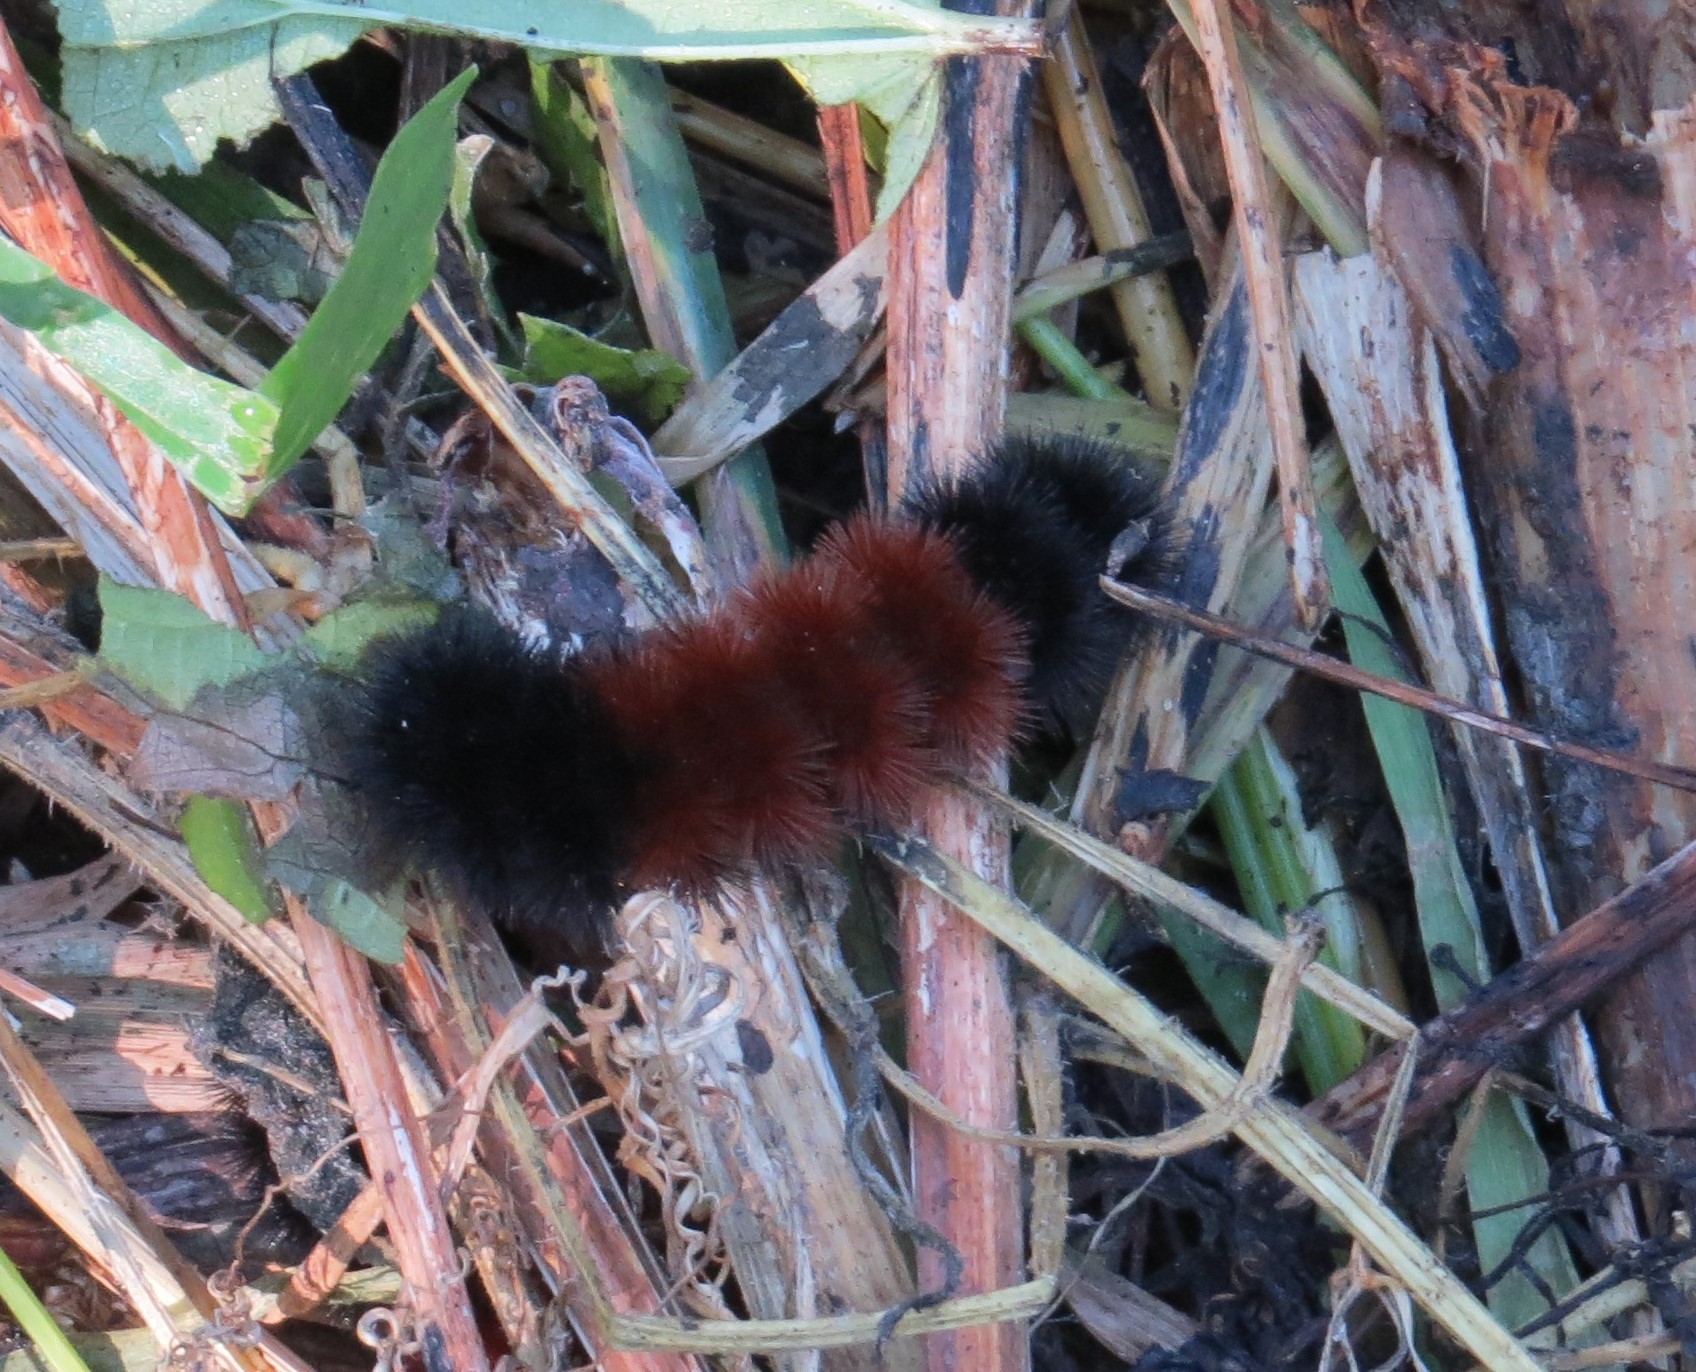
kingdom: Animalia
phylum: Arthropoda
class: Insecta
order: Lepidoptera
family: Erebidae
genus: Pyrrharctia
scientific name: Pyrrharctia isabella
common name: Isabella tiger moth
